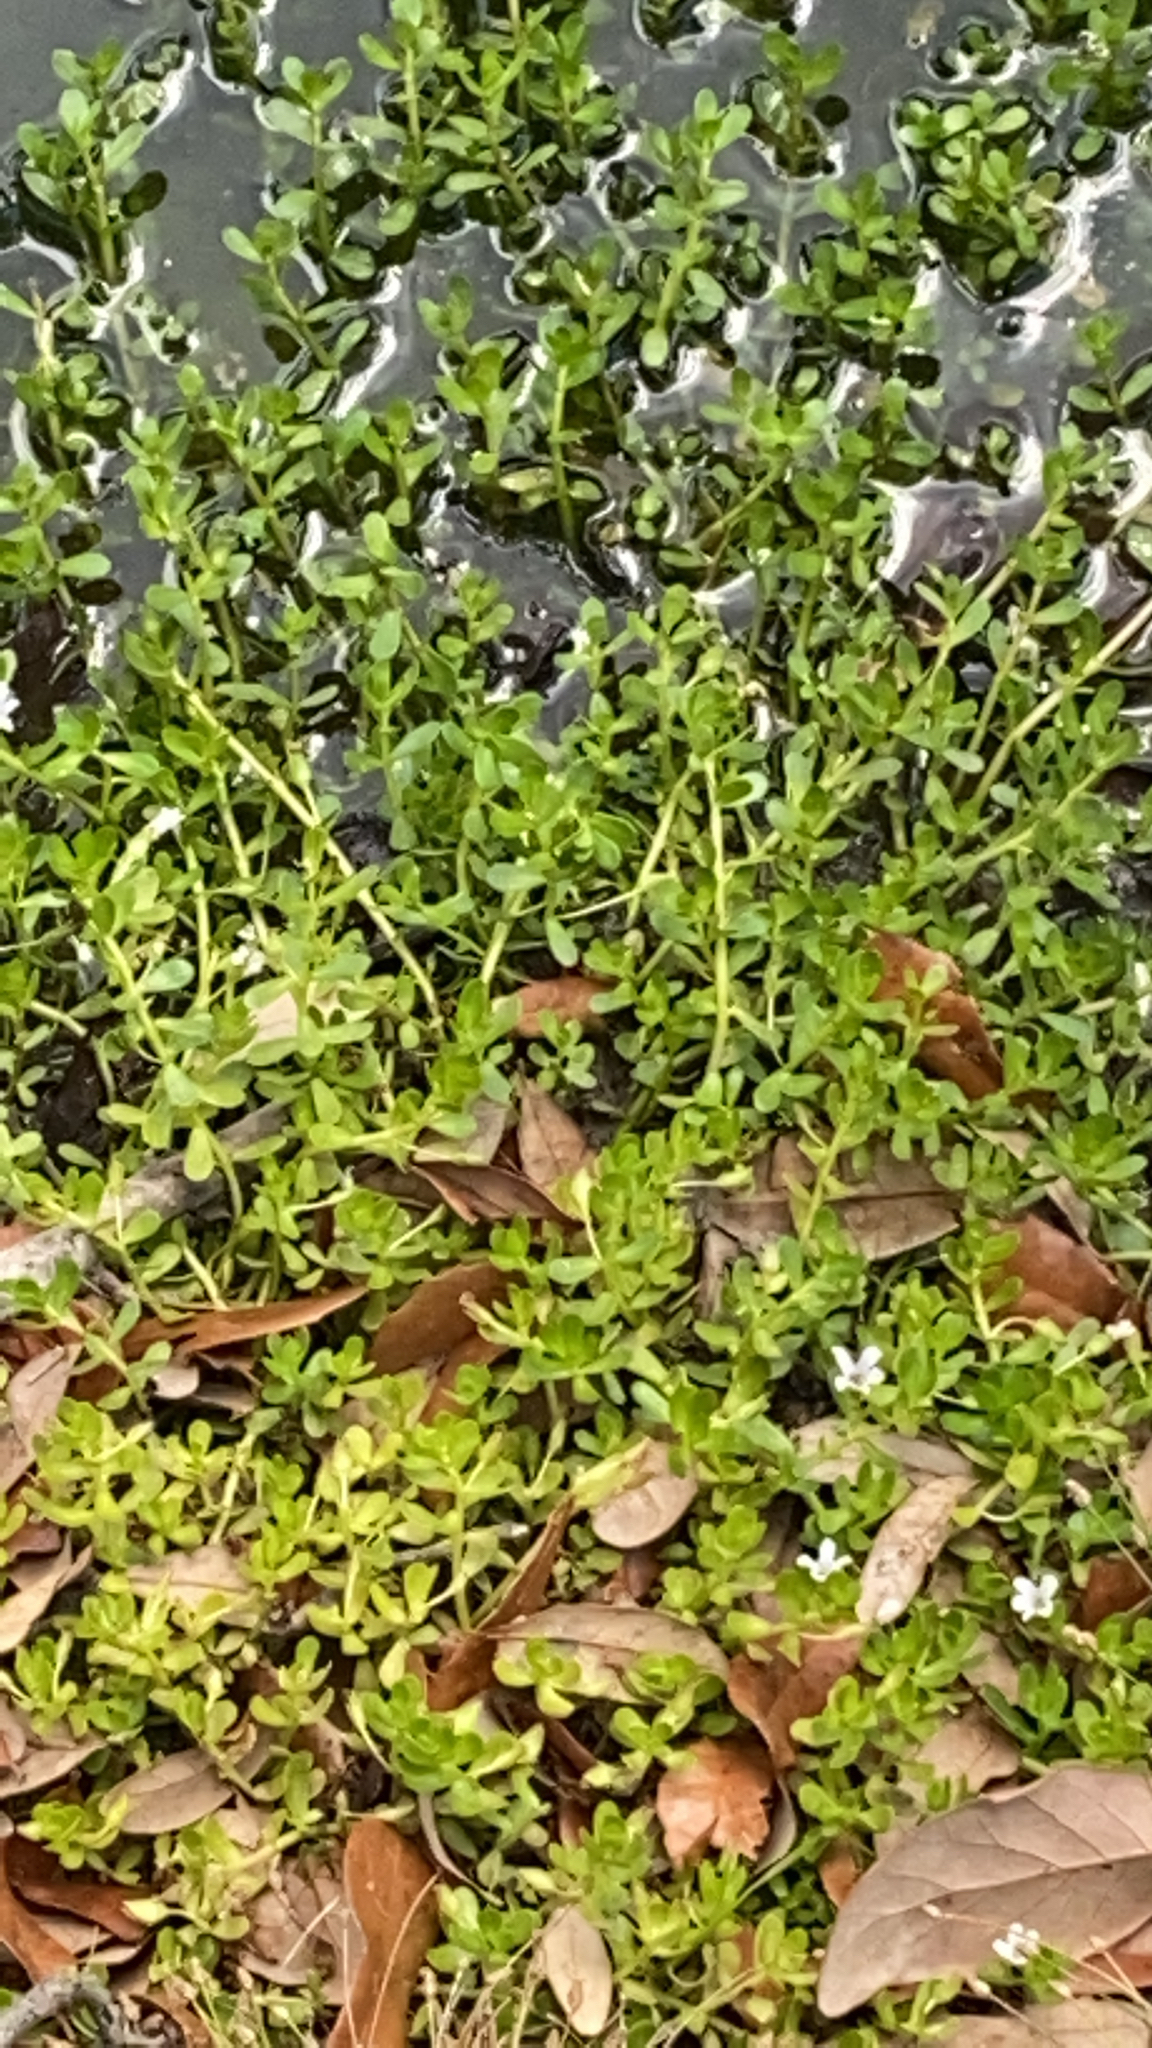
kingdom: Plantae
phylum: Tracheophyta
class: Magnoliopsida
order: Lamiales
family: Plantaginaceae
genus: Bacopa
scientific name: Bacopa monnieri
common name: Indian-pennywort
